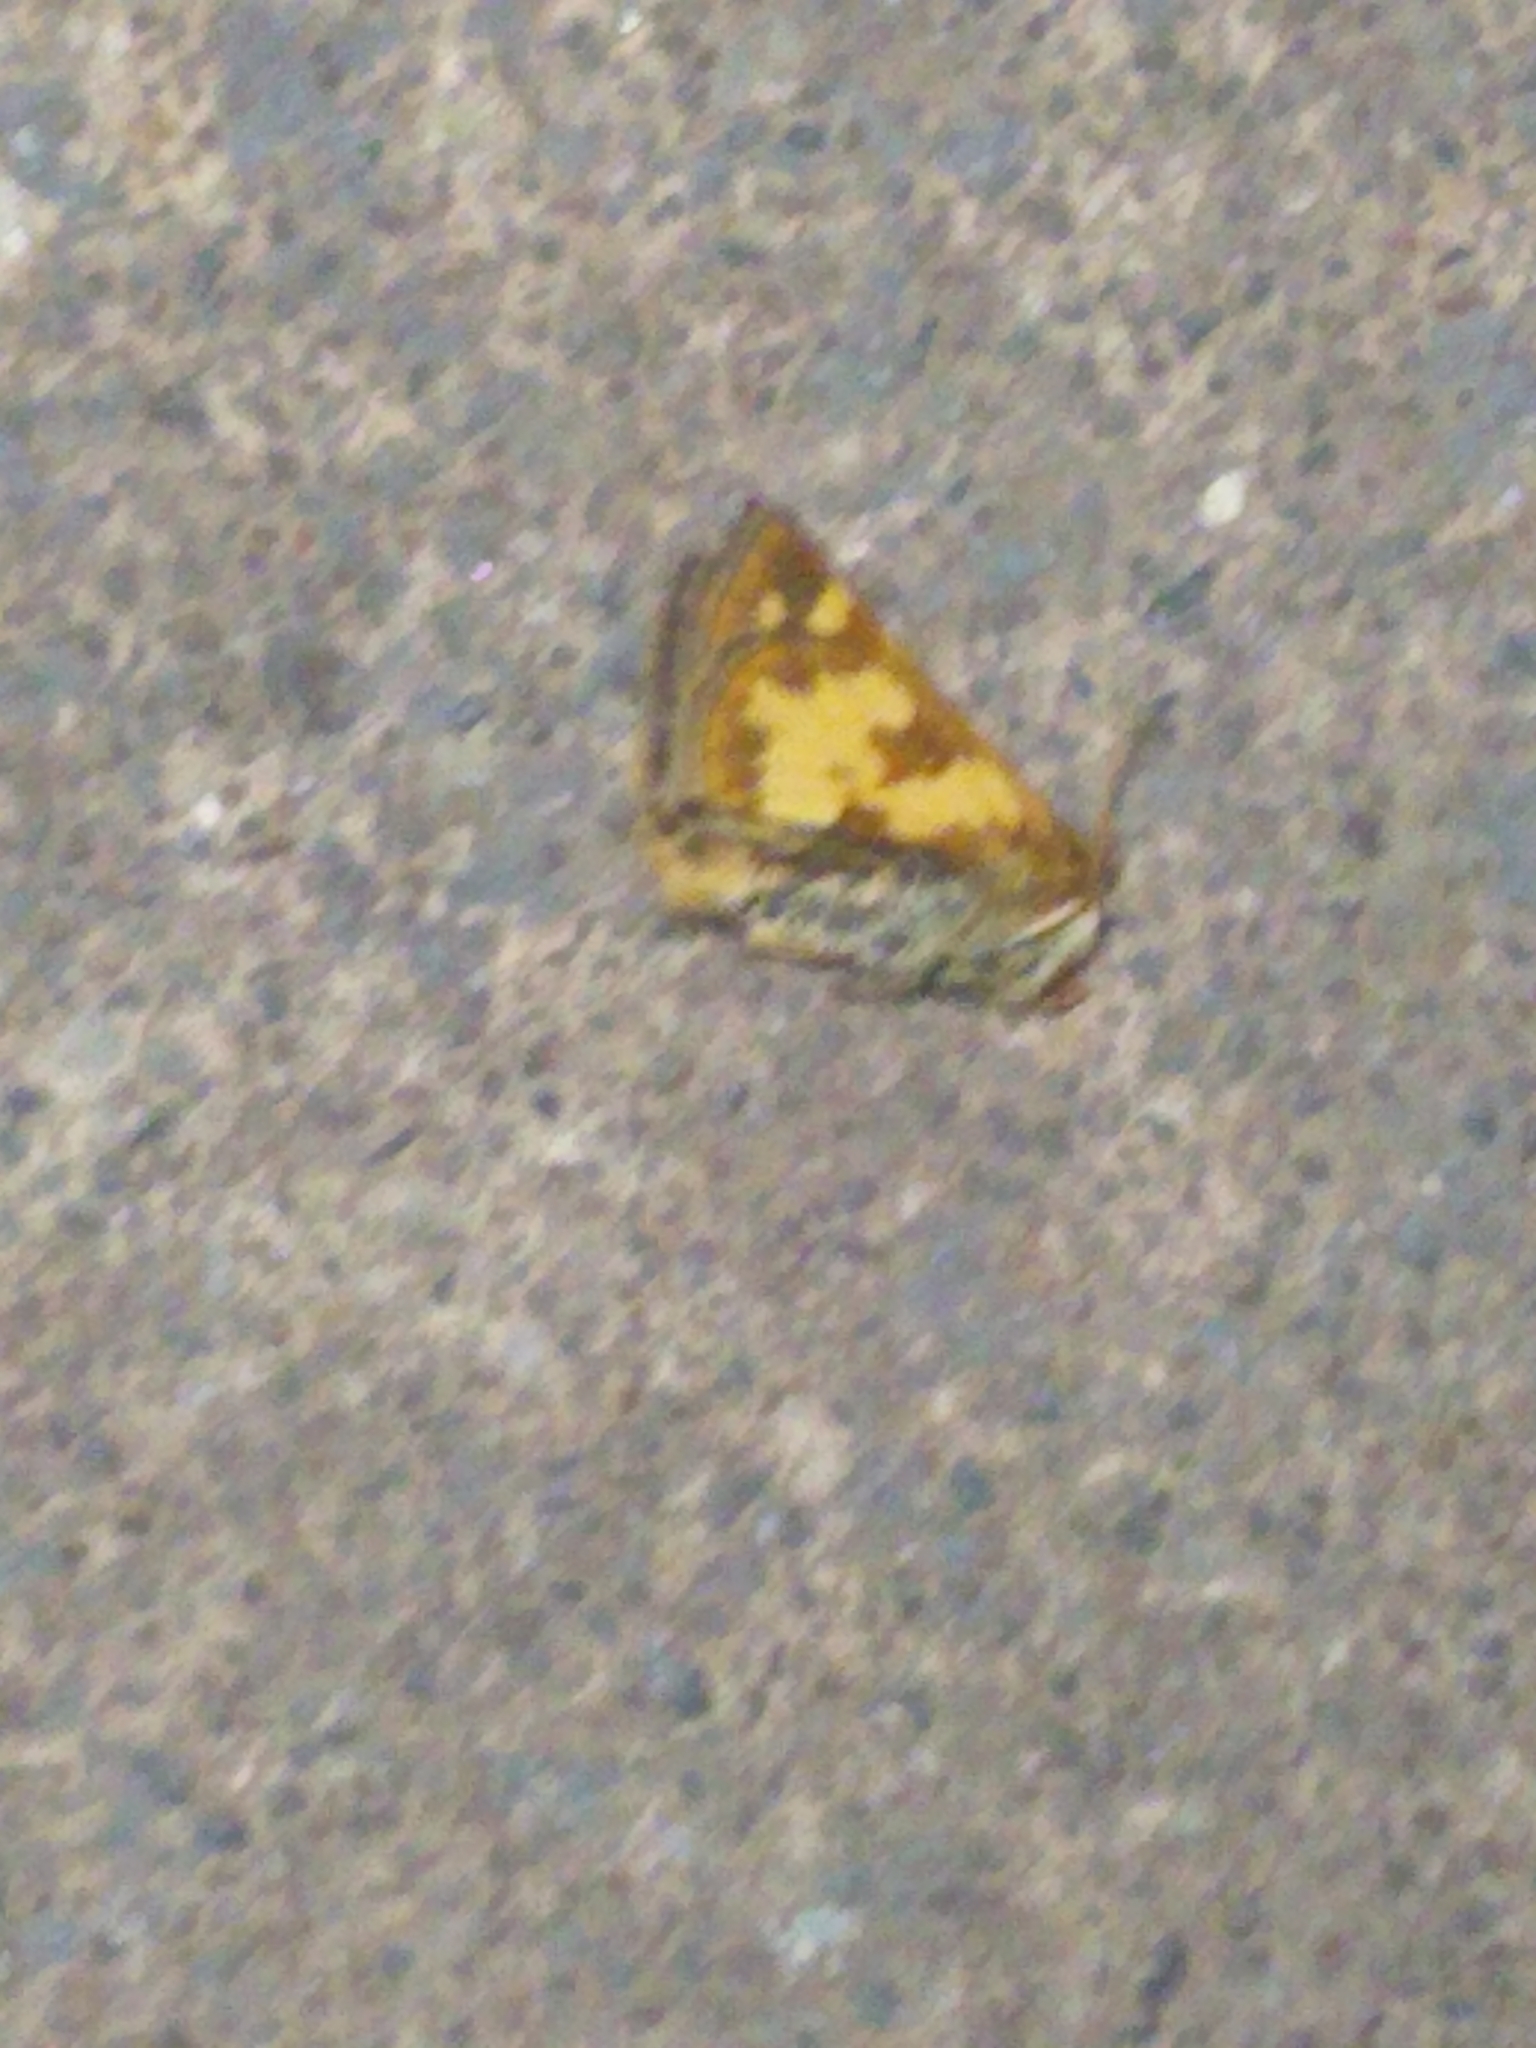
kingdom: Animalia
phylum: Arthropoda
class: Insecta
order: Lepidoptera
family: Hesperiidae
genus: Polites
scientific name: Polites coras
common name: Peck's skipper
